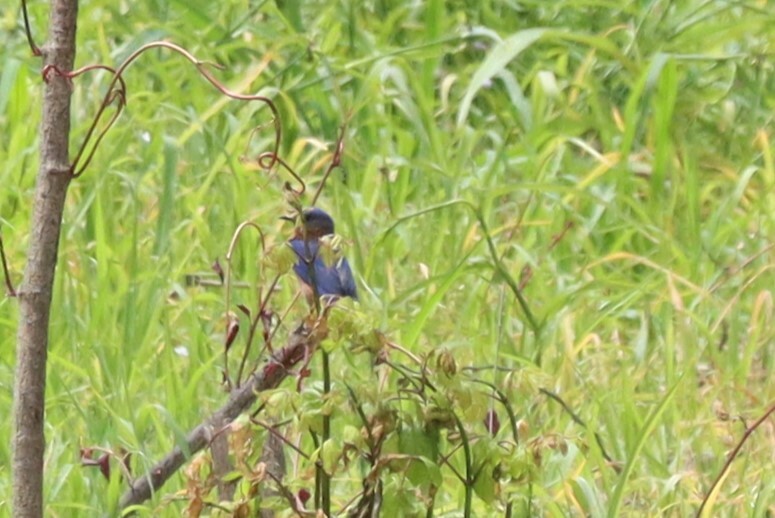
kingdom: Animalia
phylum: Chordata
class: Aves
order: Passeriformes
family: Turdidae
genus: Sialia
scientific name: Sialia sialis
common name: Eastern bluebird
